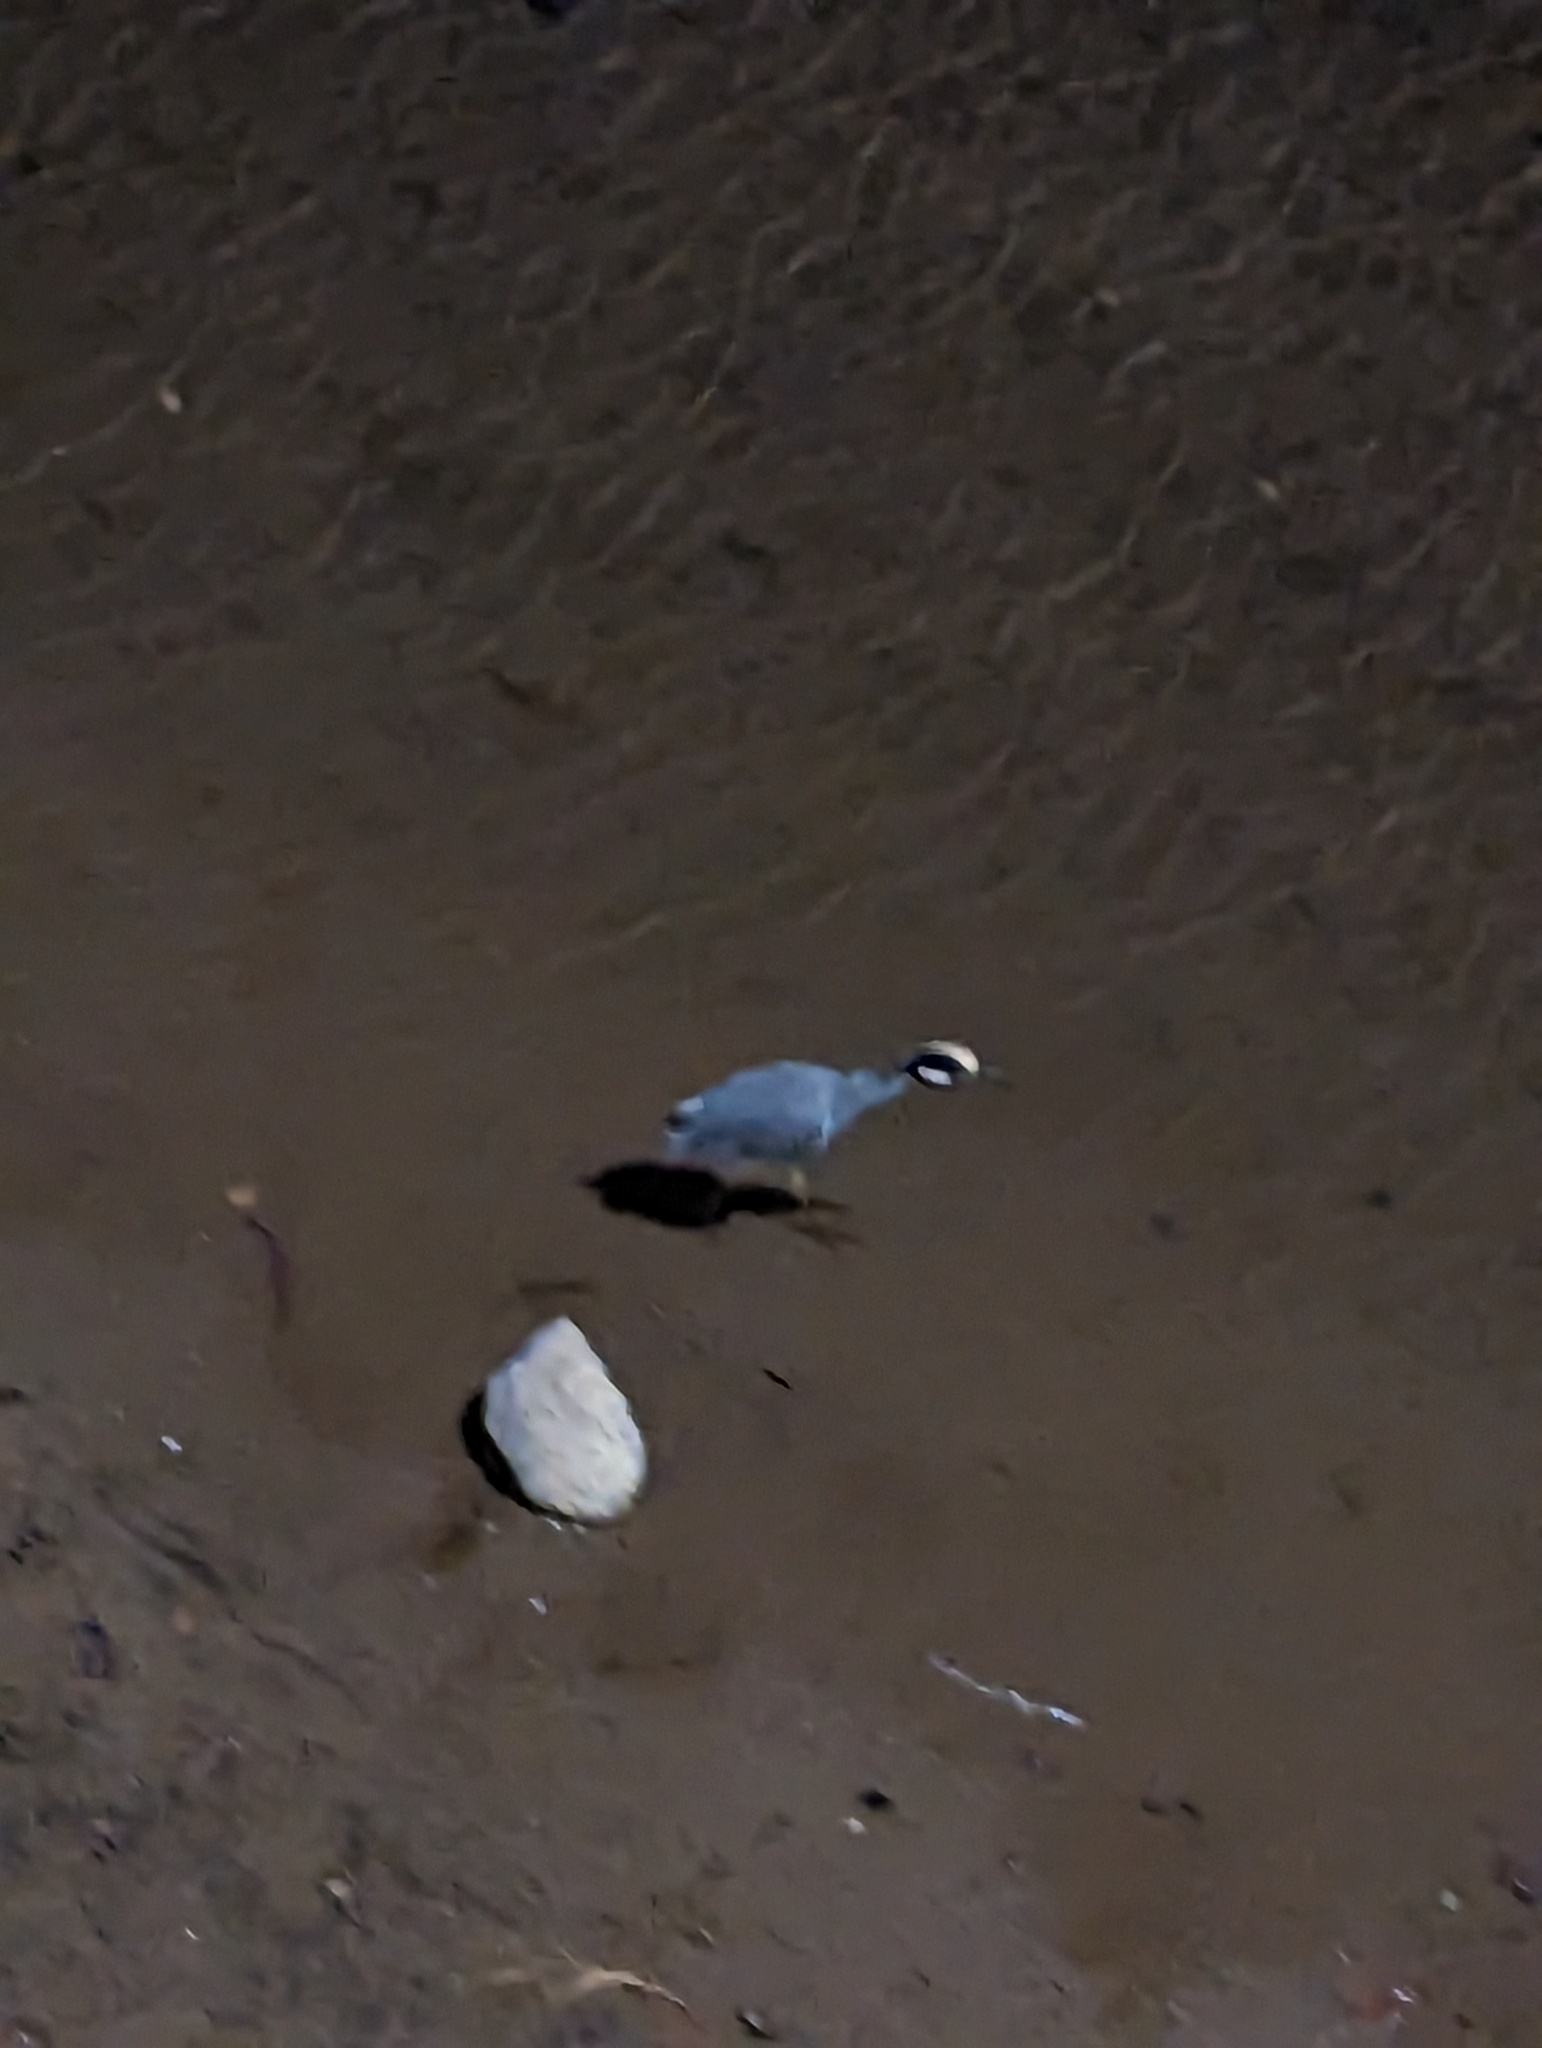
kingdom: Animalia
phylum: Chordata
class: Aves
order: Pelecaniformes
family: Ardeidae
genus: Nyctanassa
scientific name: Nyctanassa violacea
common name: Yellow-crowned night heron
